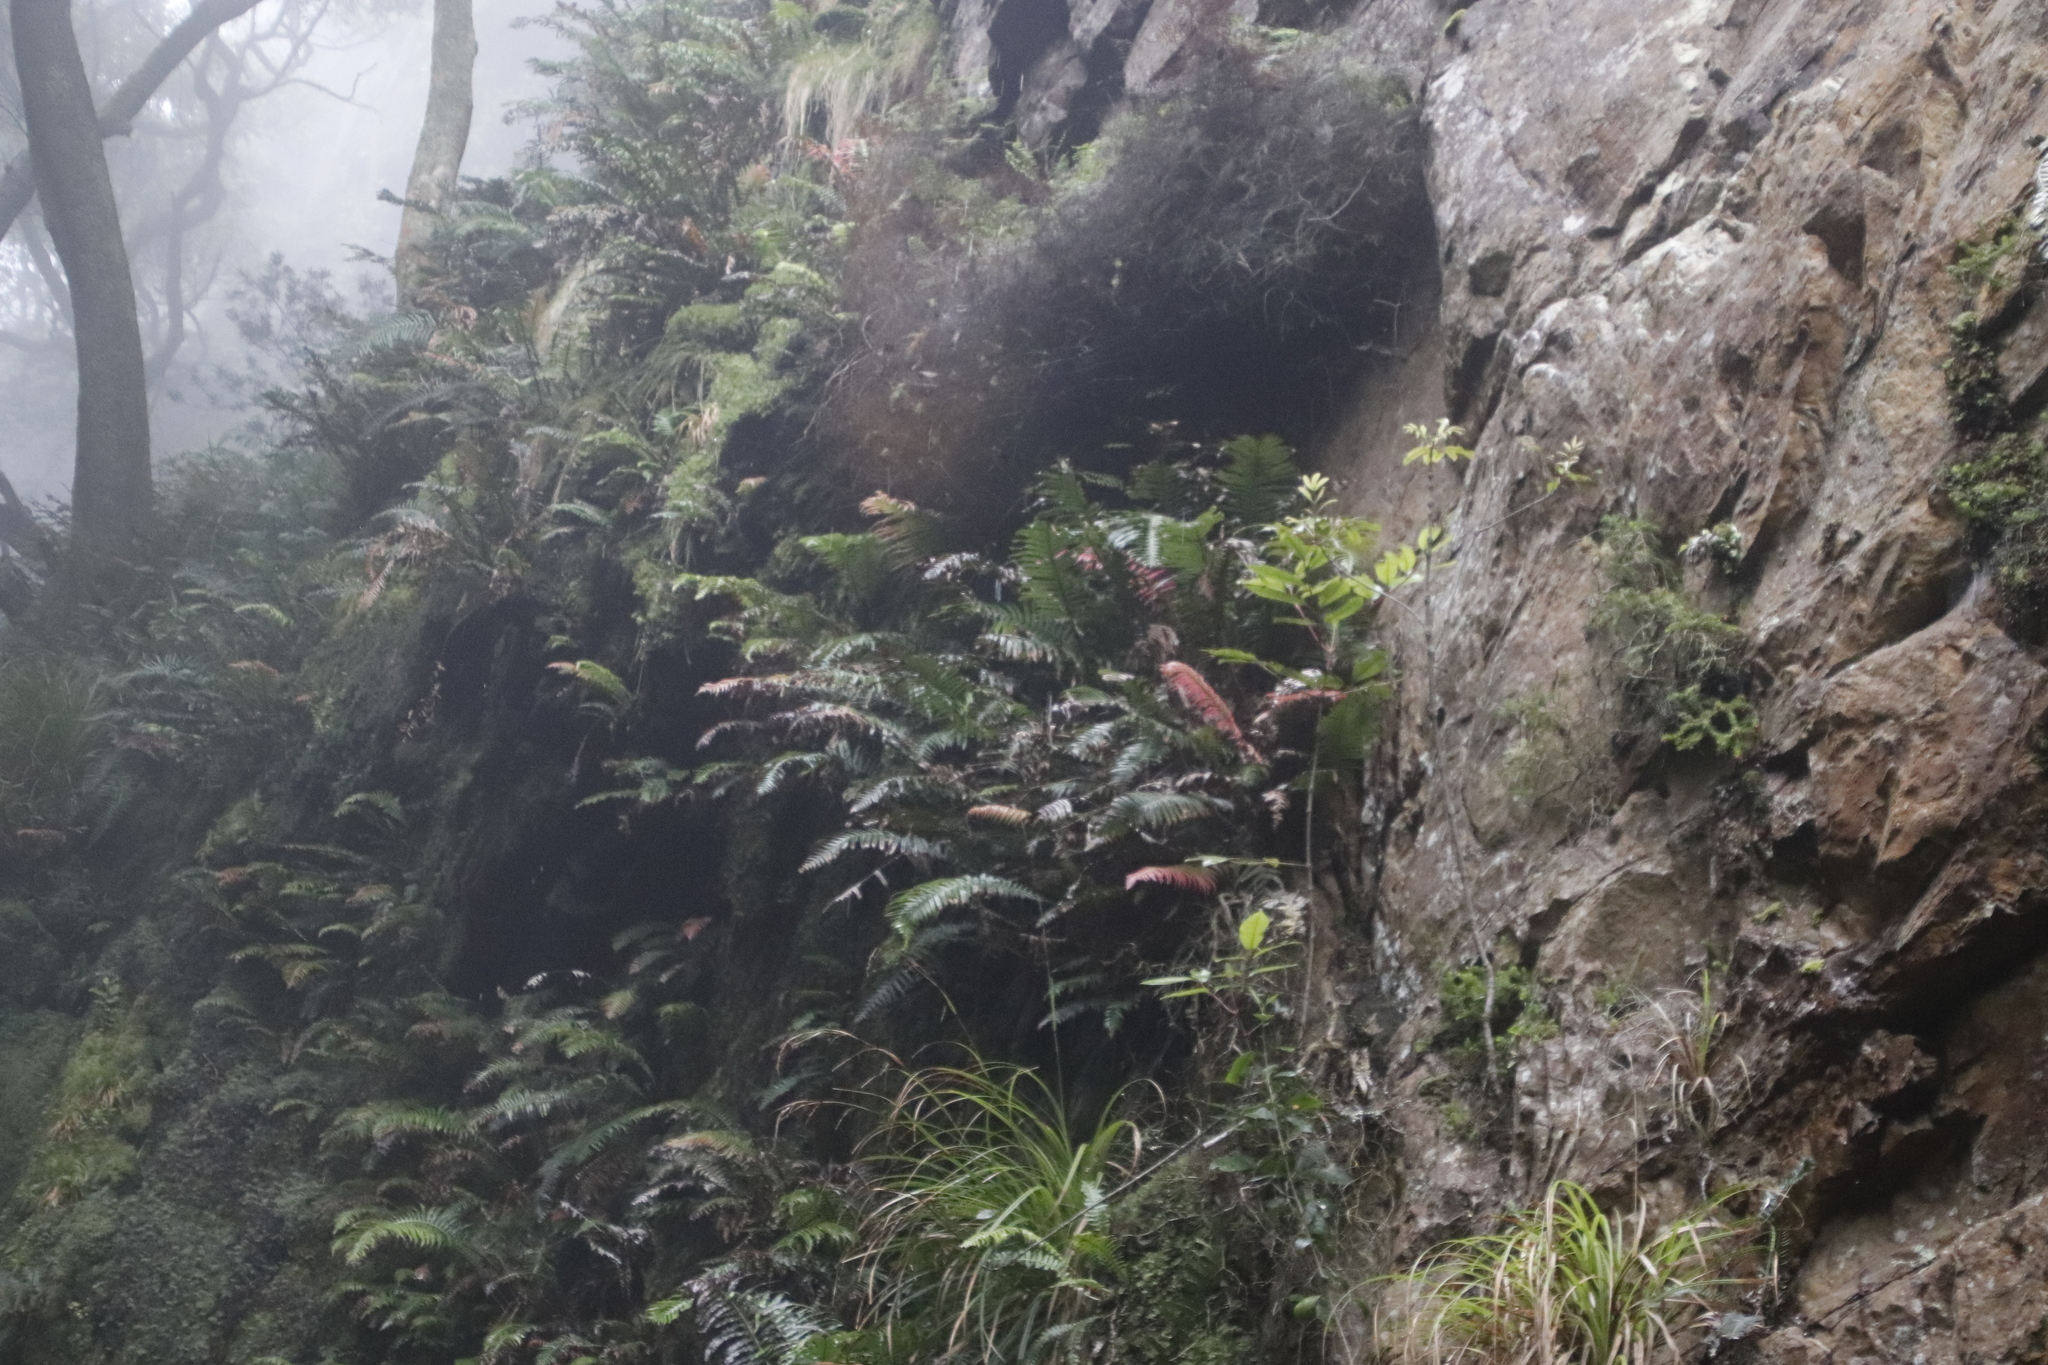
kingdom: Plantae
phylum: Tracheophyta
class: Polypodiopsida
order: Polypodiales
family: Blechnaceae
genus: Lomaridium
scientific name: Lomaridium attenuatum
